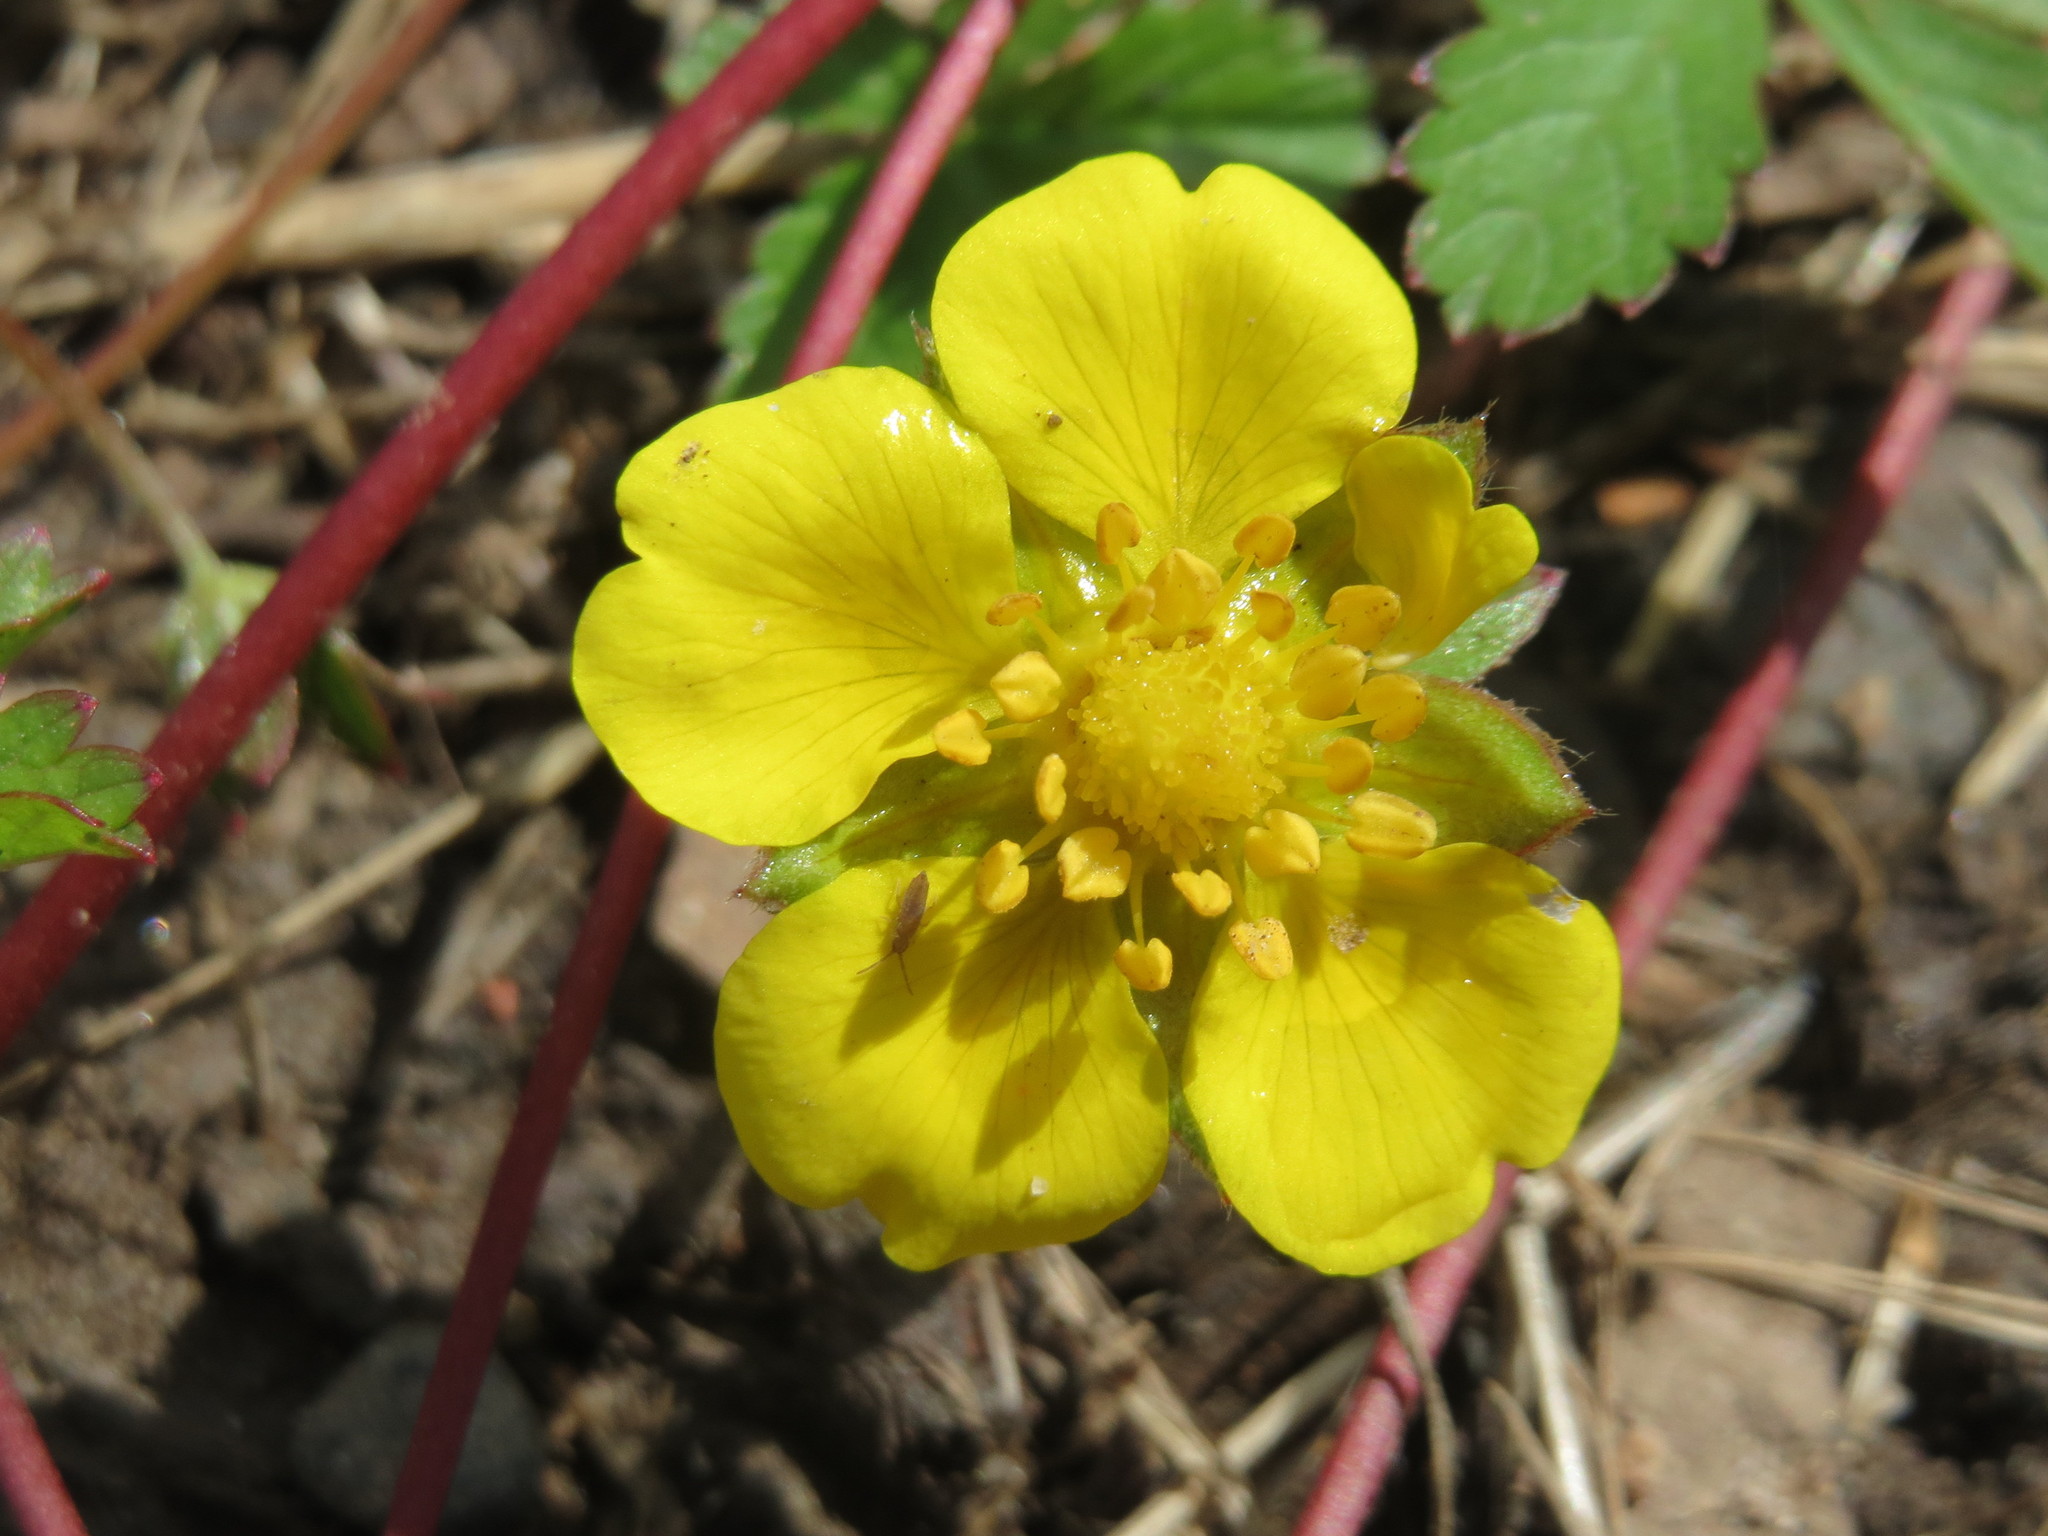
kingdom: Plantae
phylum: Tracheophyta
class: Magnoliopsida
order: Rosales
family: Rosaceae
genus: Potentilla
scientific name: Potentilla reptans
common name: Creeping cinquefoil
